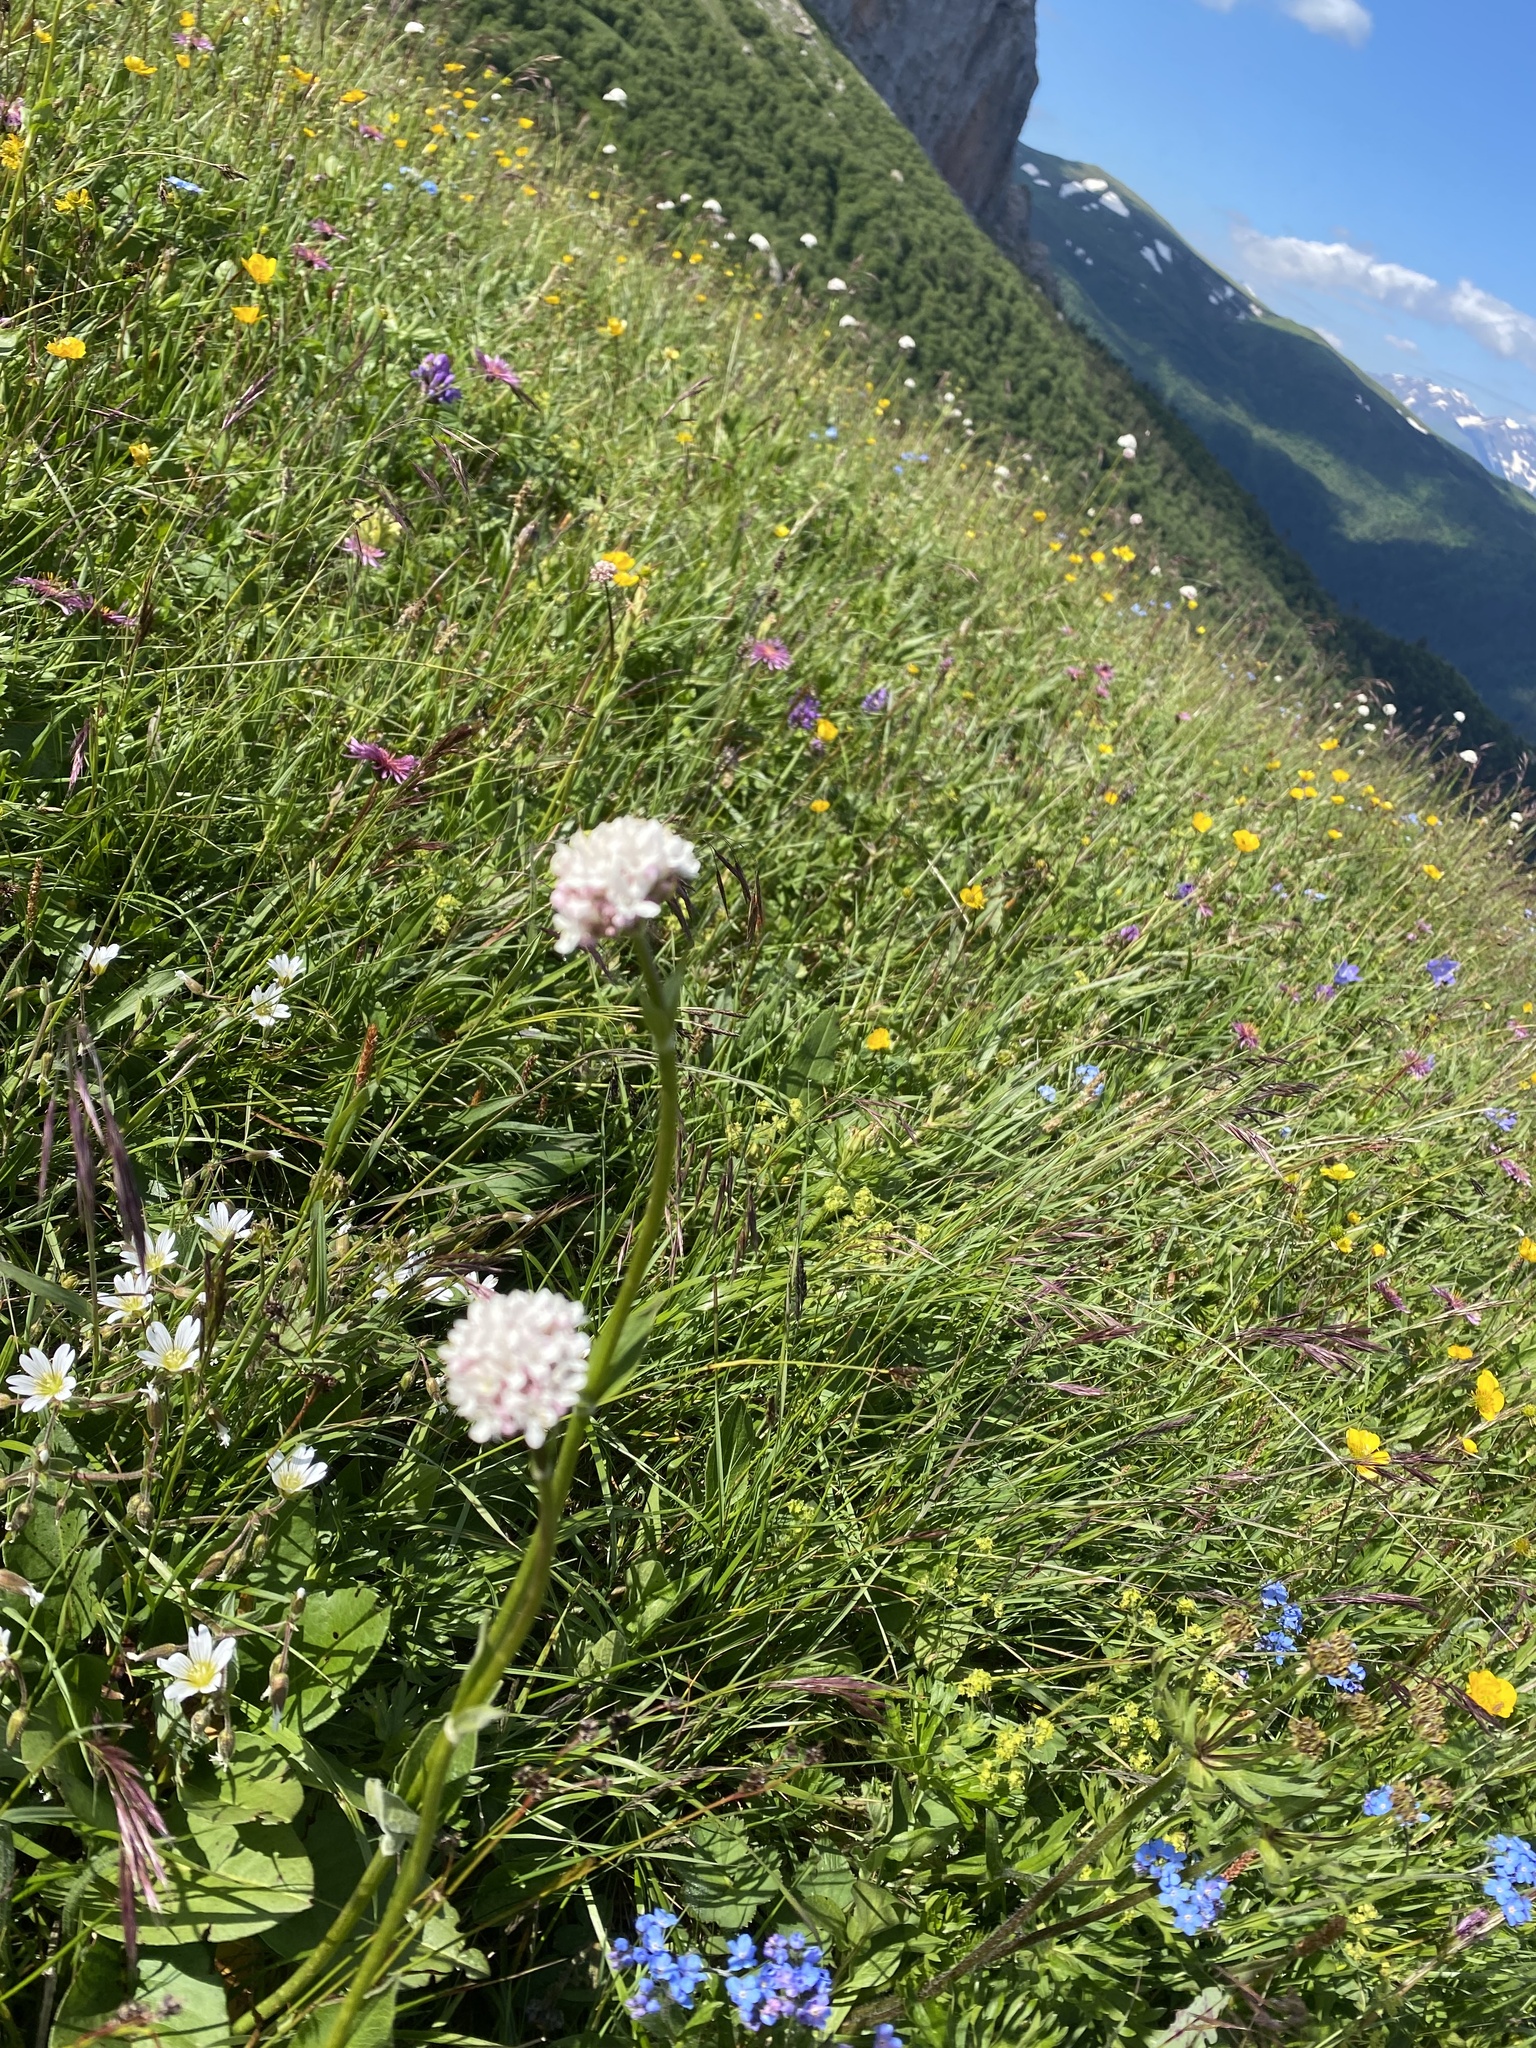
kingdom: Plantae
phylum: Tracheophyta
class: Magnoliopsida
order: Dipsacales
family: Caprifoliaceae
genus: Valeriana
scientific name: Valeriana alpestris
